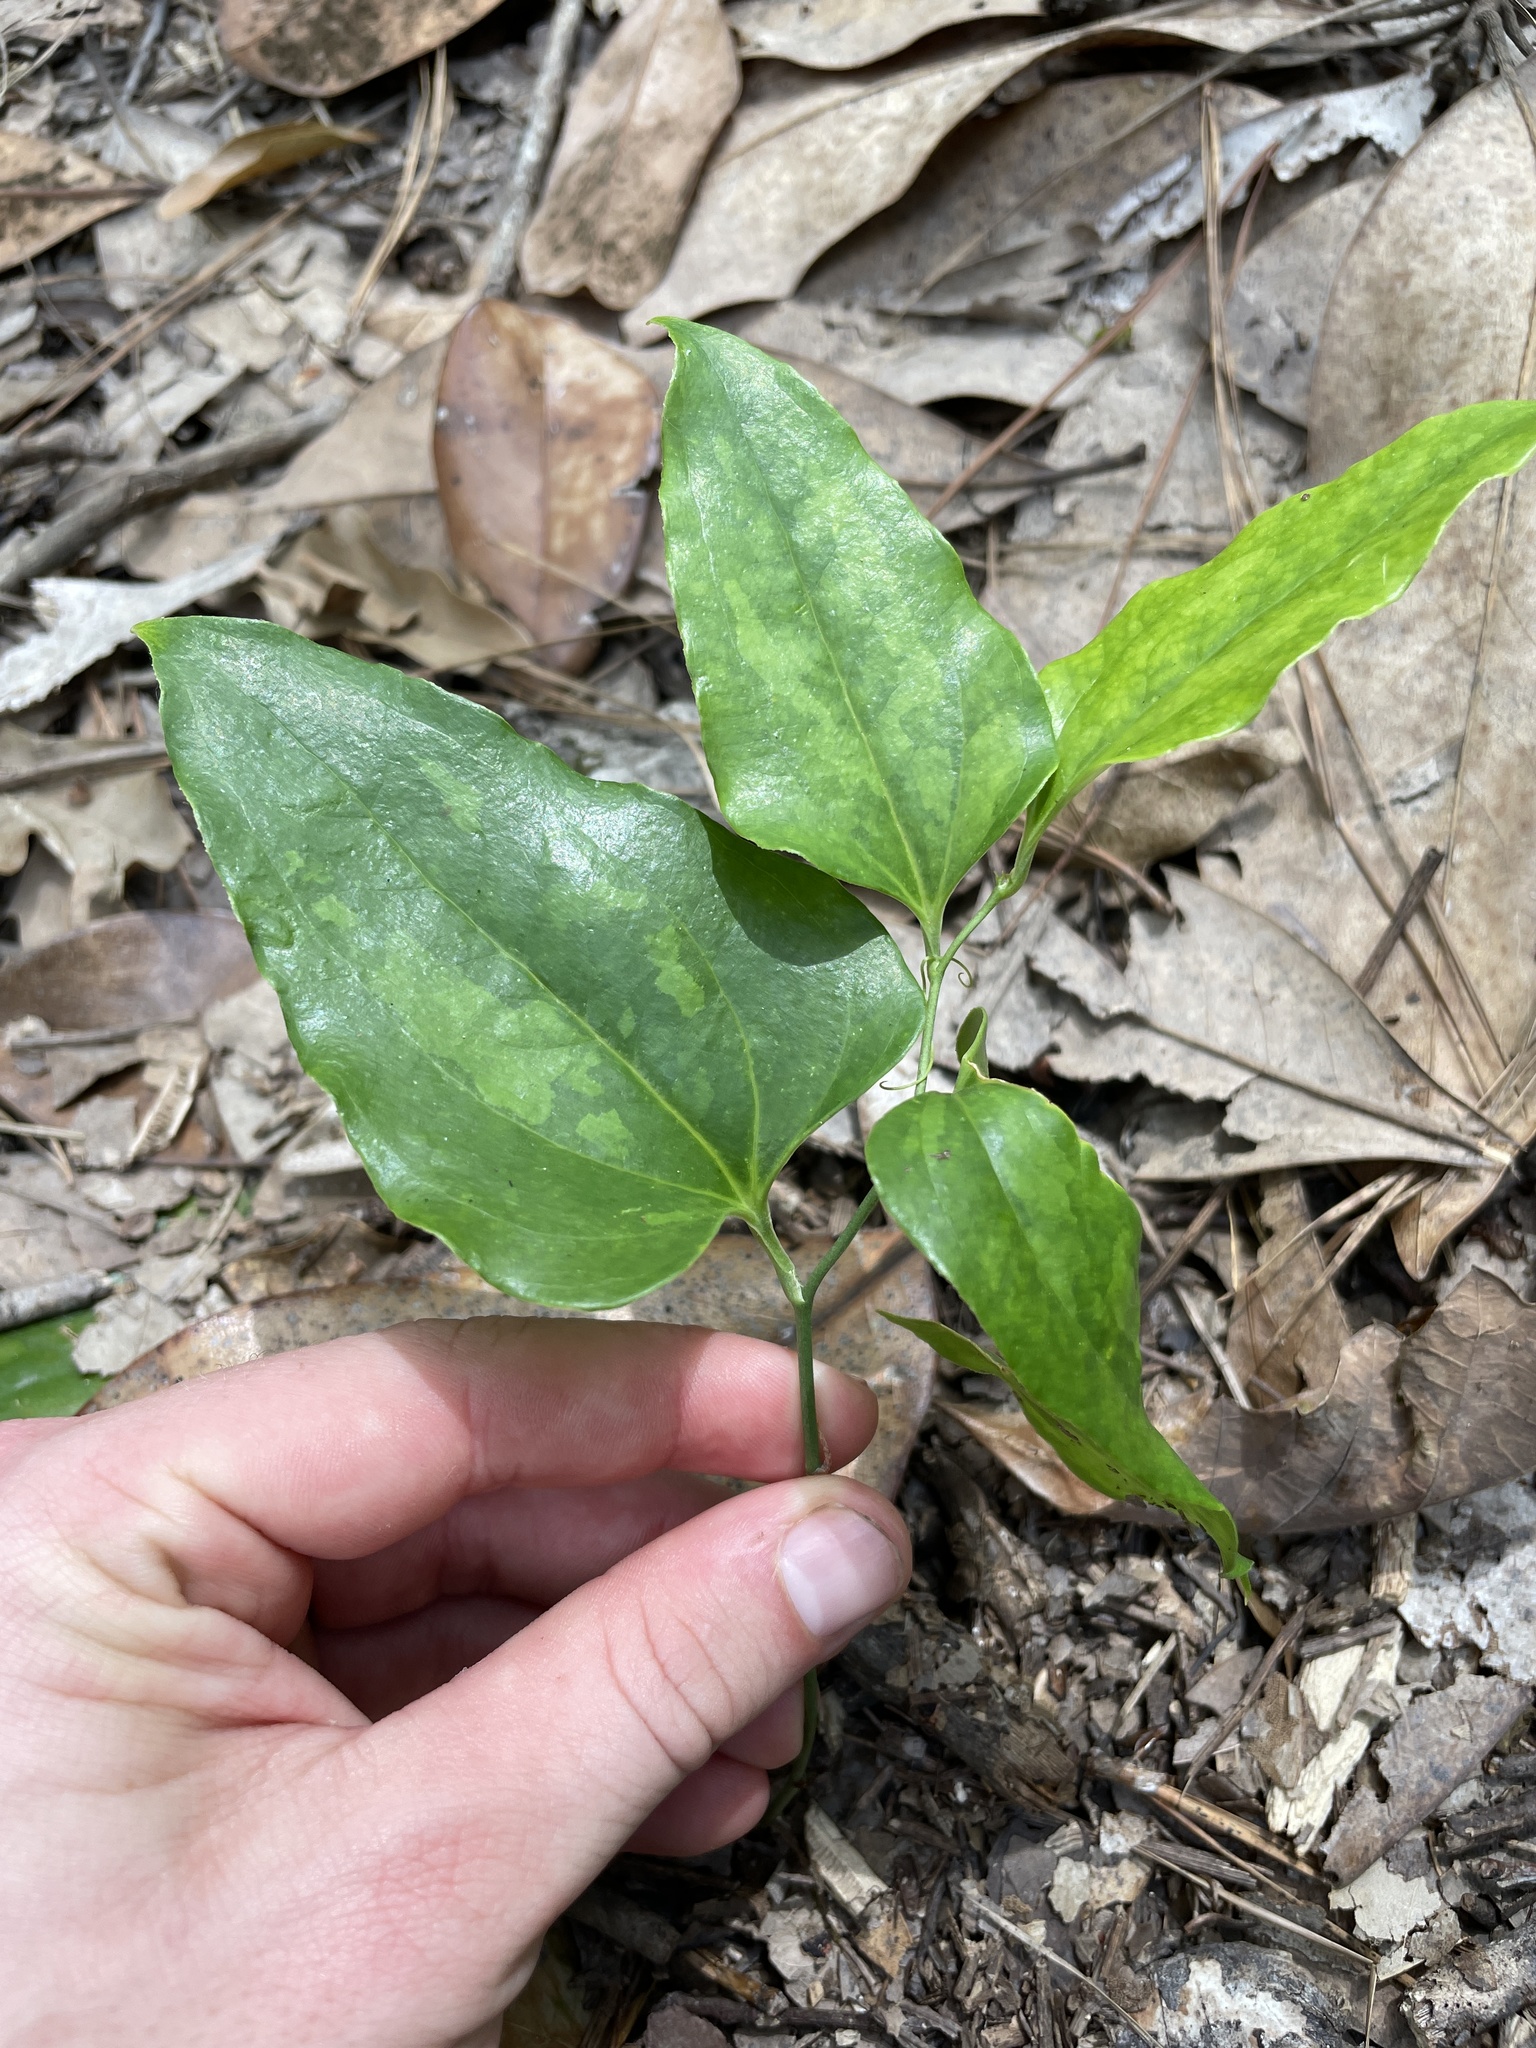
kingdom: Plantae
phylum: Tracheophyta
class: Liliopsida
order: Liliales
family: Smilacaceae
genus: Smilax
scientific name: Smilax maritima
